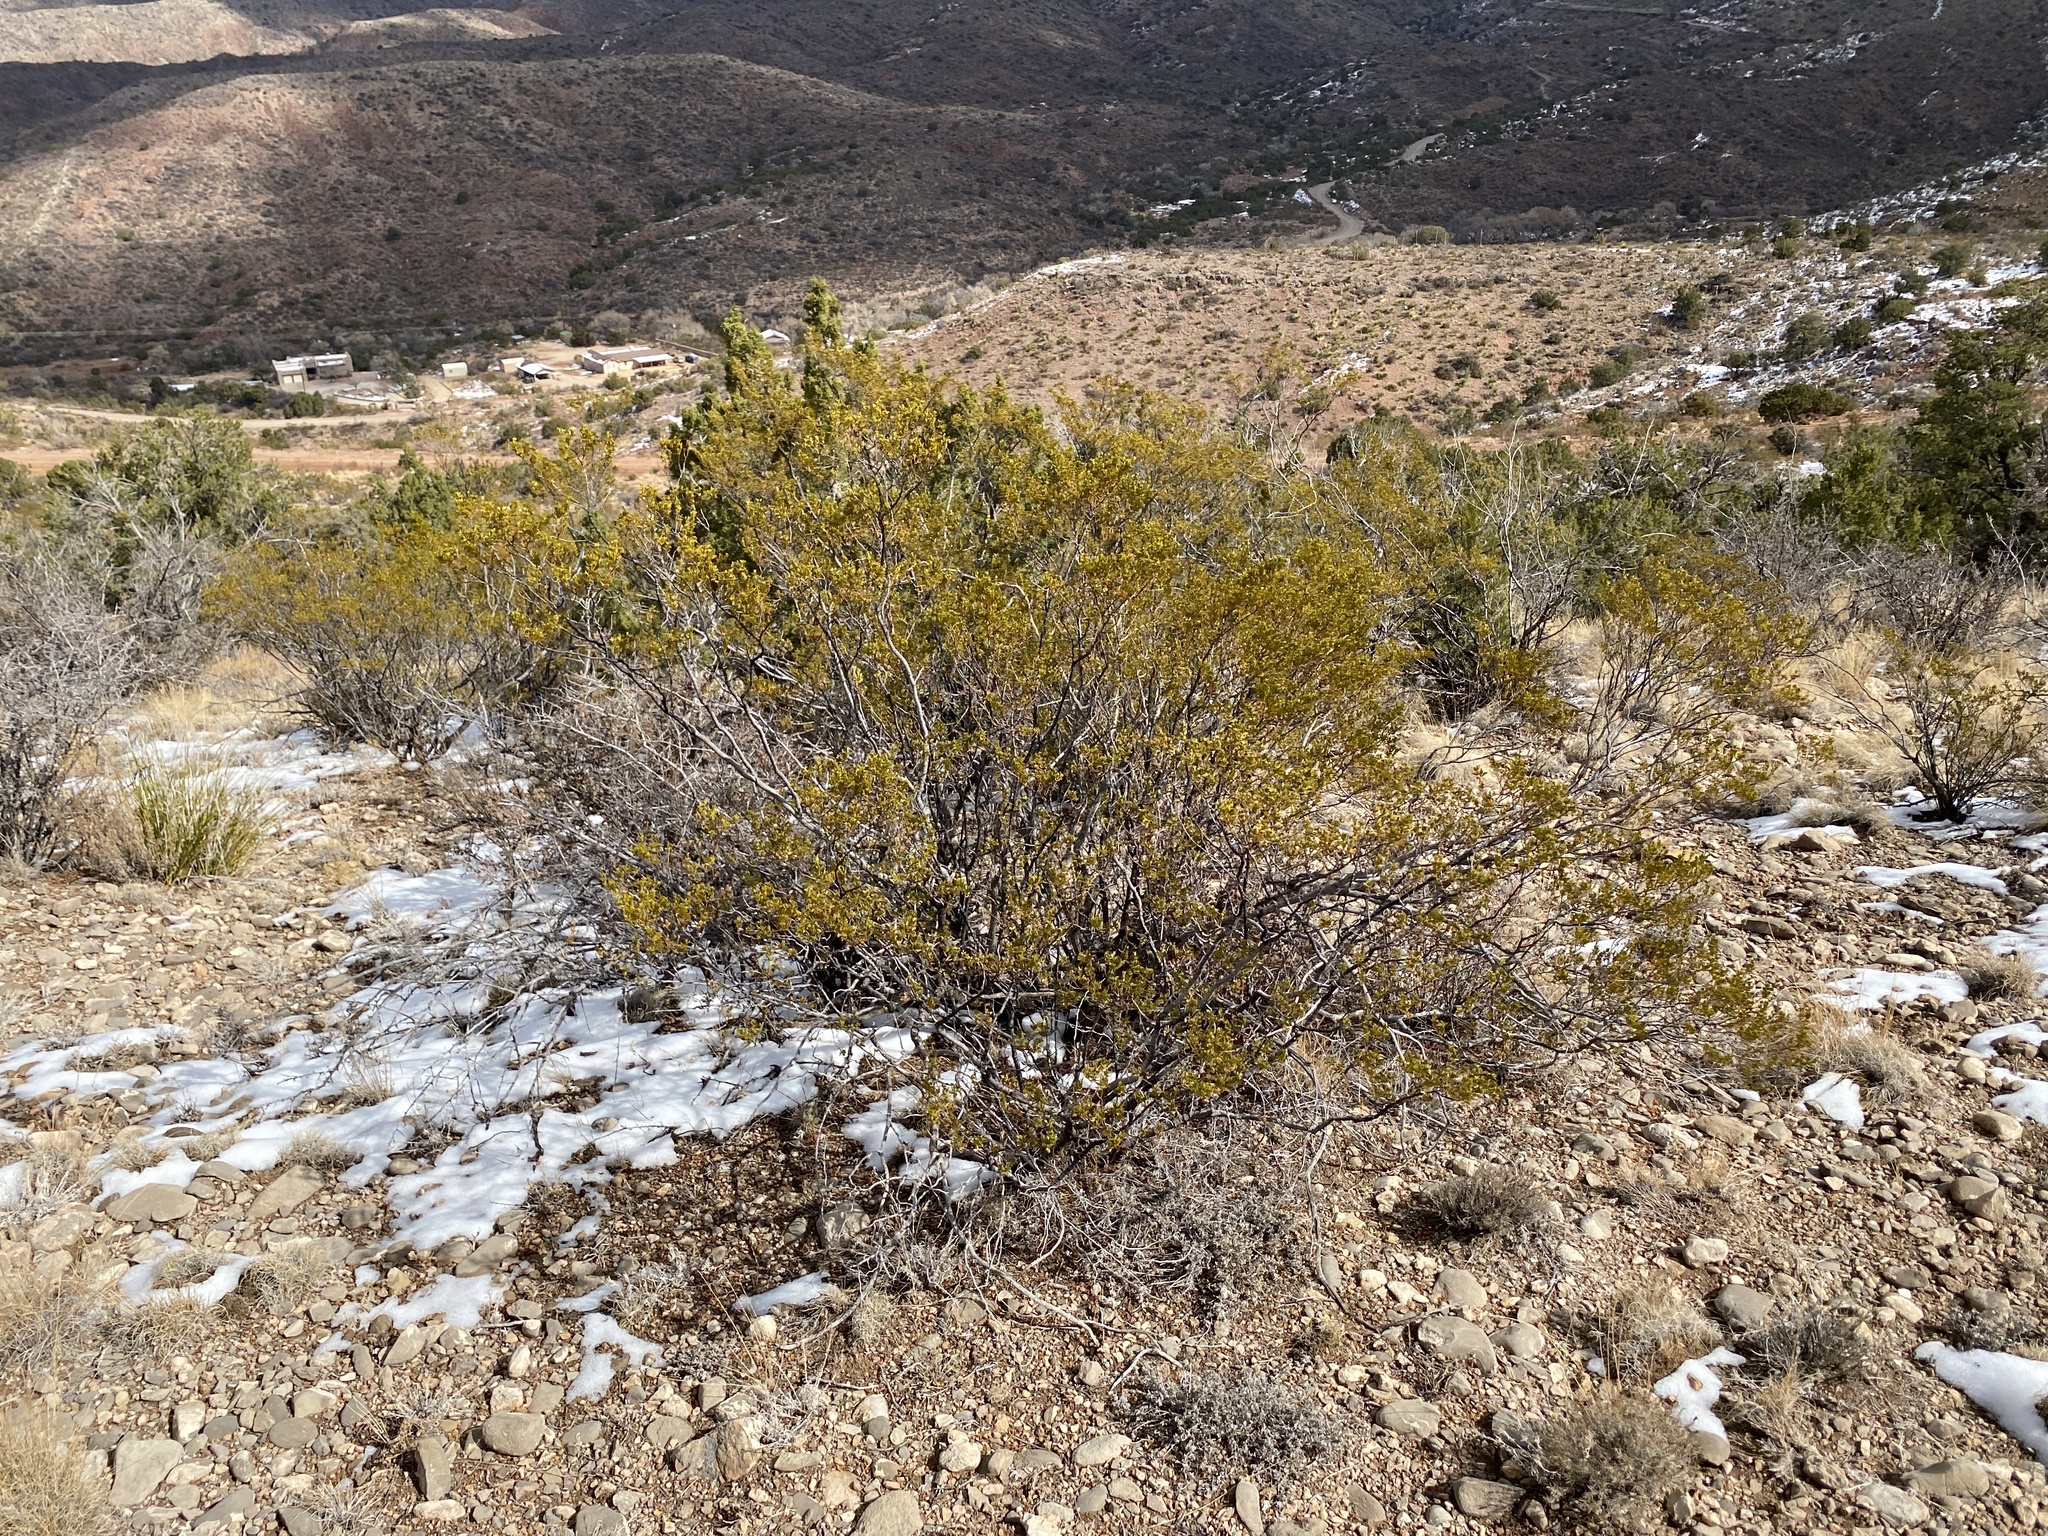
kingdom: Plantae
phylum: Tracheophyta
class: Magnoliopsida
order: Zygophyllales
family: Zygophyllaceae
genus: Larrea
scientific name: Larrea tridentata
